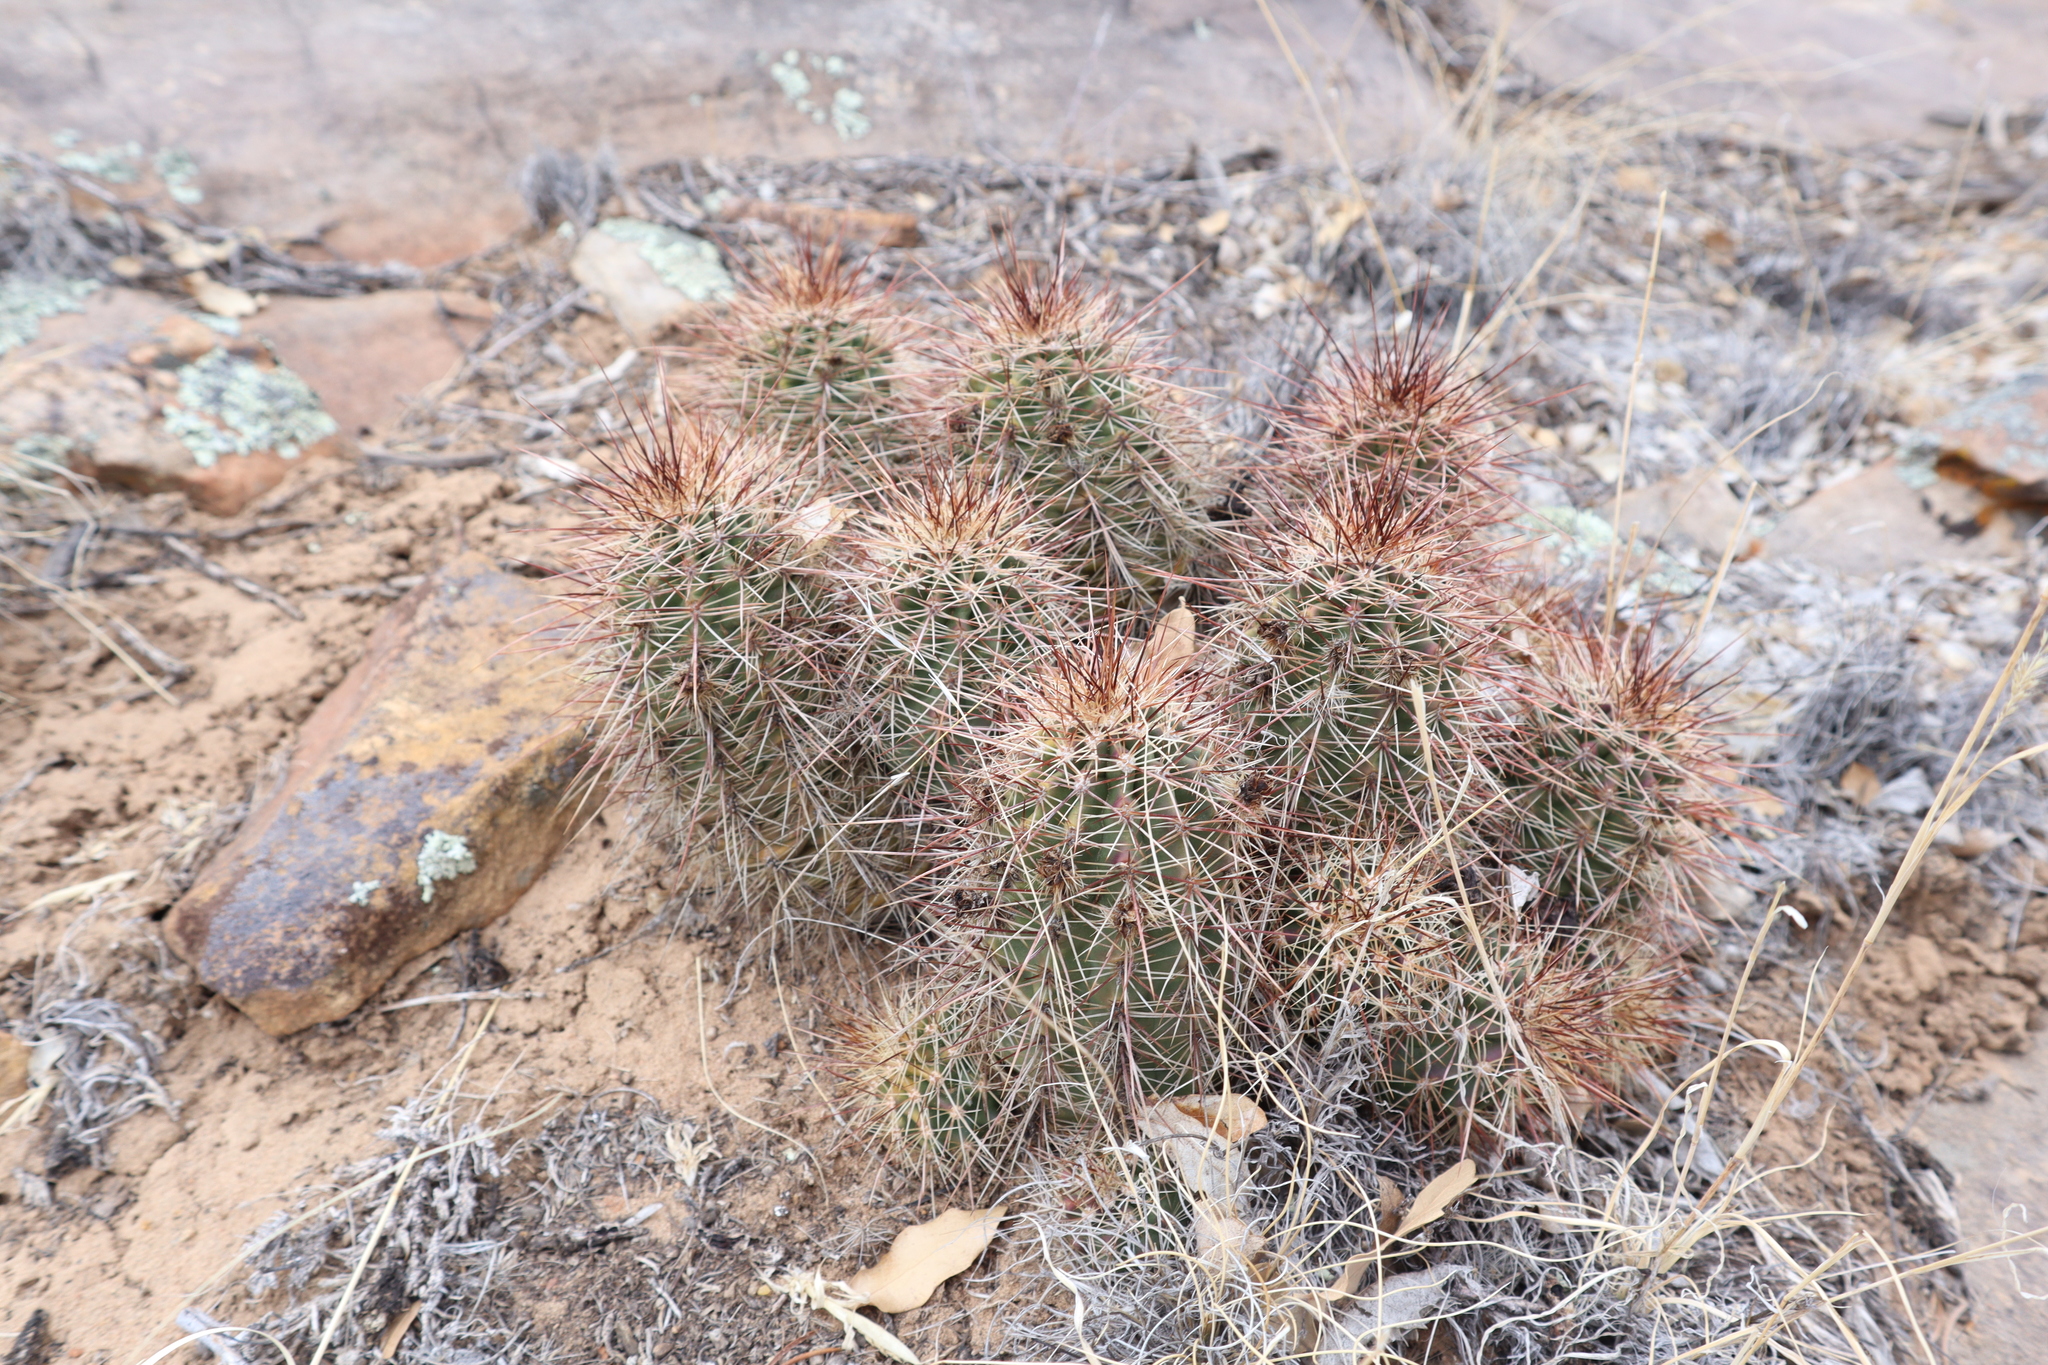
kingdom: Plantae
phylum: Tracheophyta
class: Magnoliopsida
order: Caryophyllales
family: Cactaceae
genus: Echinocereus
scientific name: Echinocereus coccineus
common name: Scarlet hedgehog cactus
